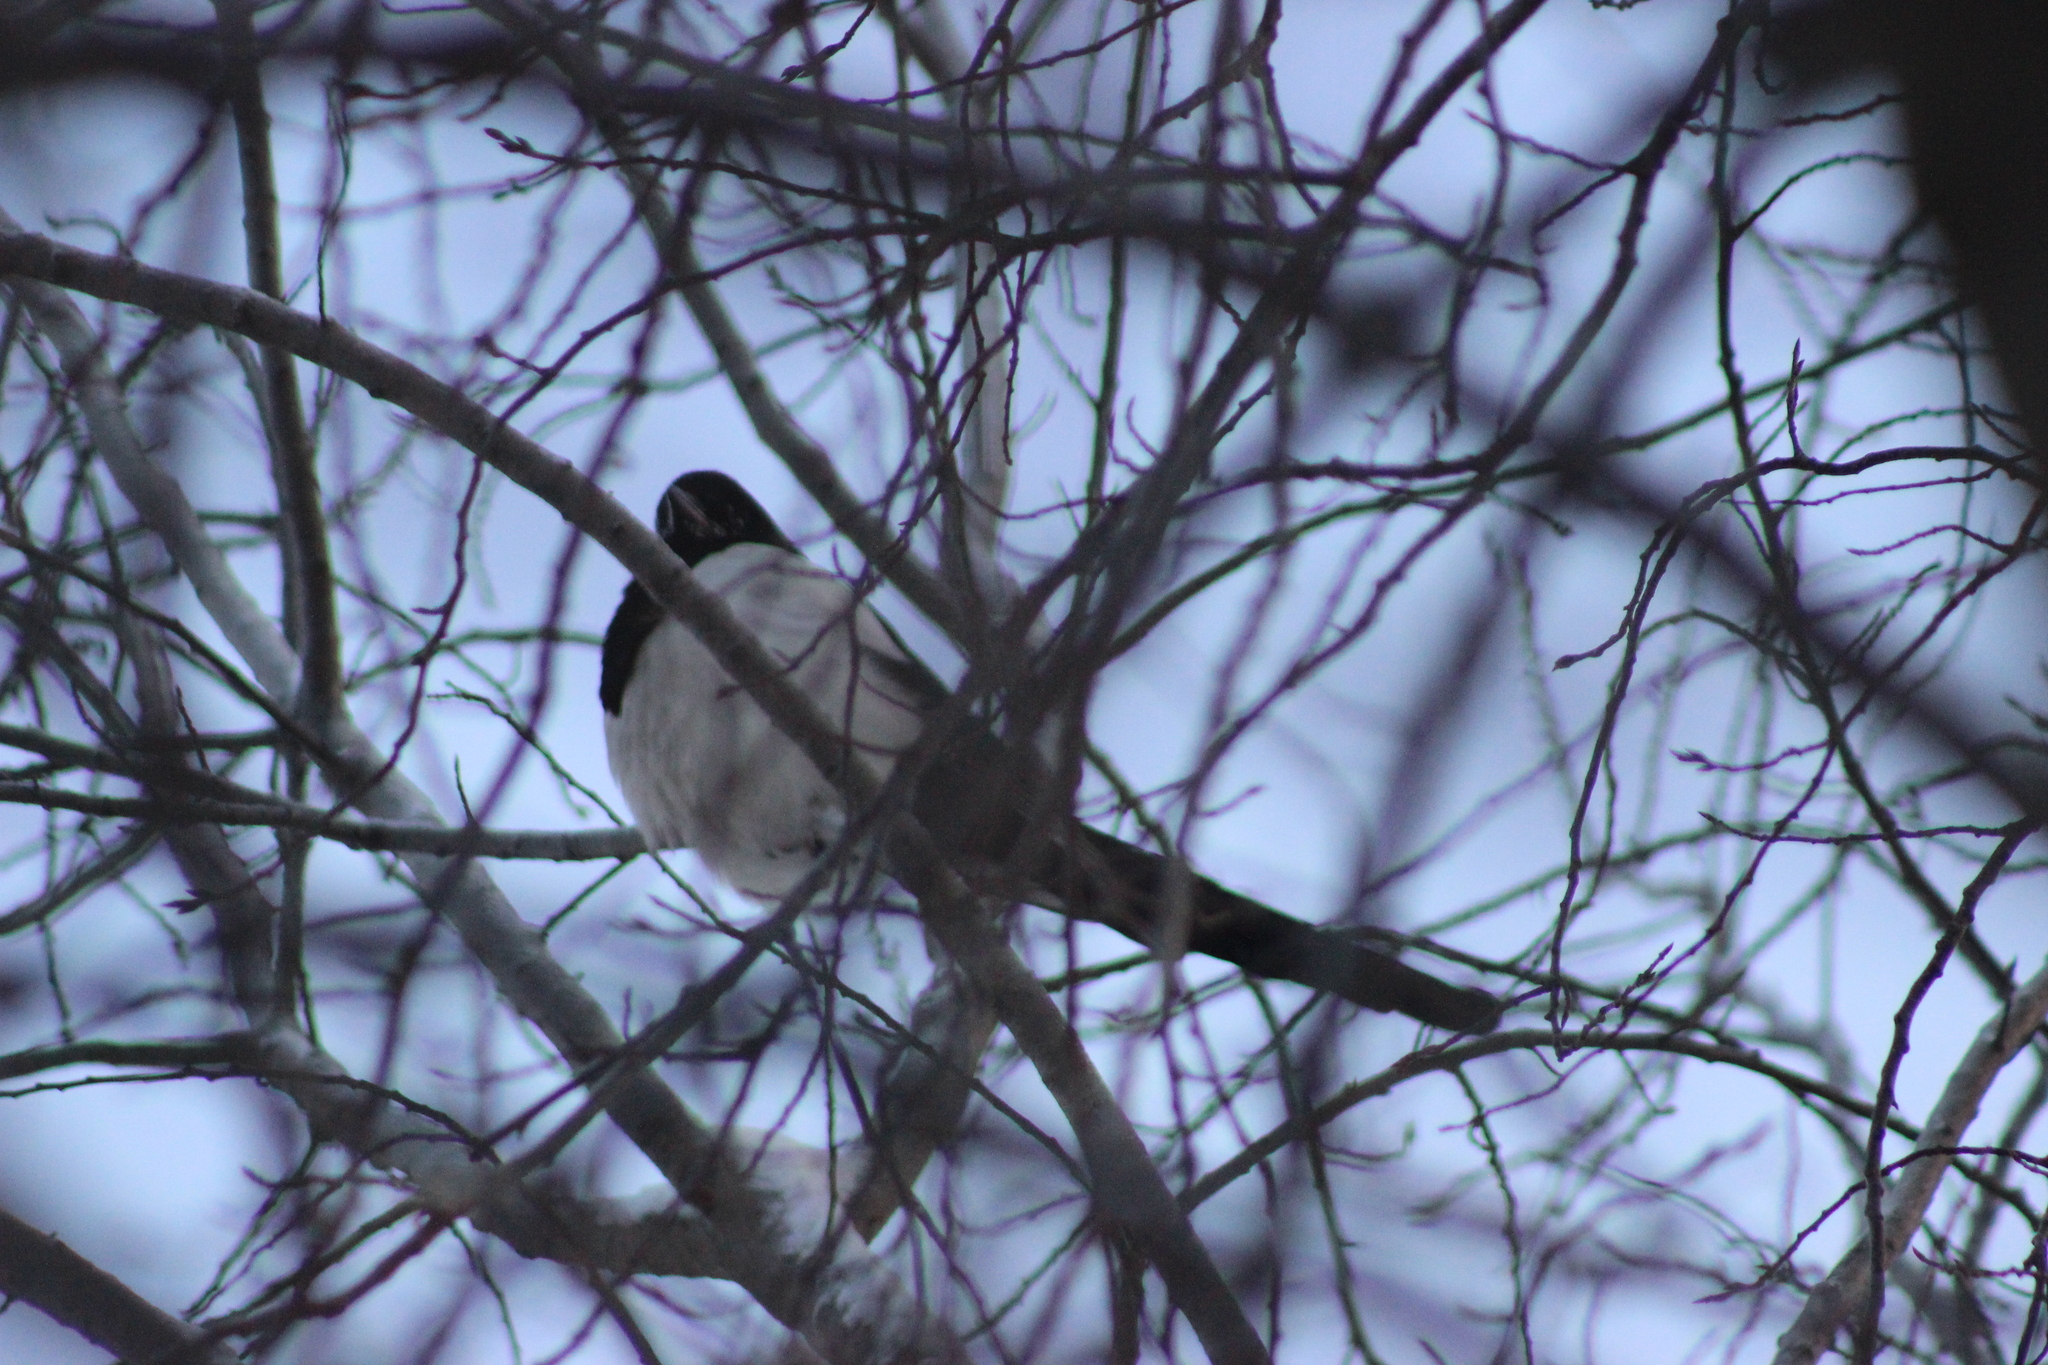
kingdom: Animalia
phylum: Chordata
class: Aves
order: Passeriformes
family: Corvidae
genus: Pica
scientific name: Pica pica
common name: Eurasian magpie
